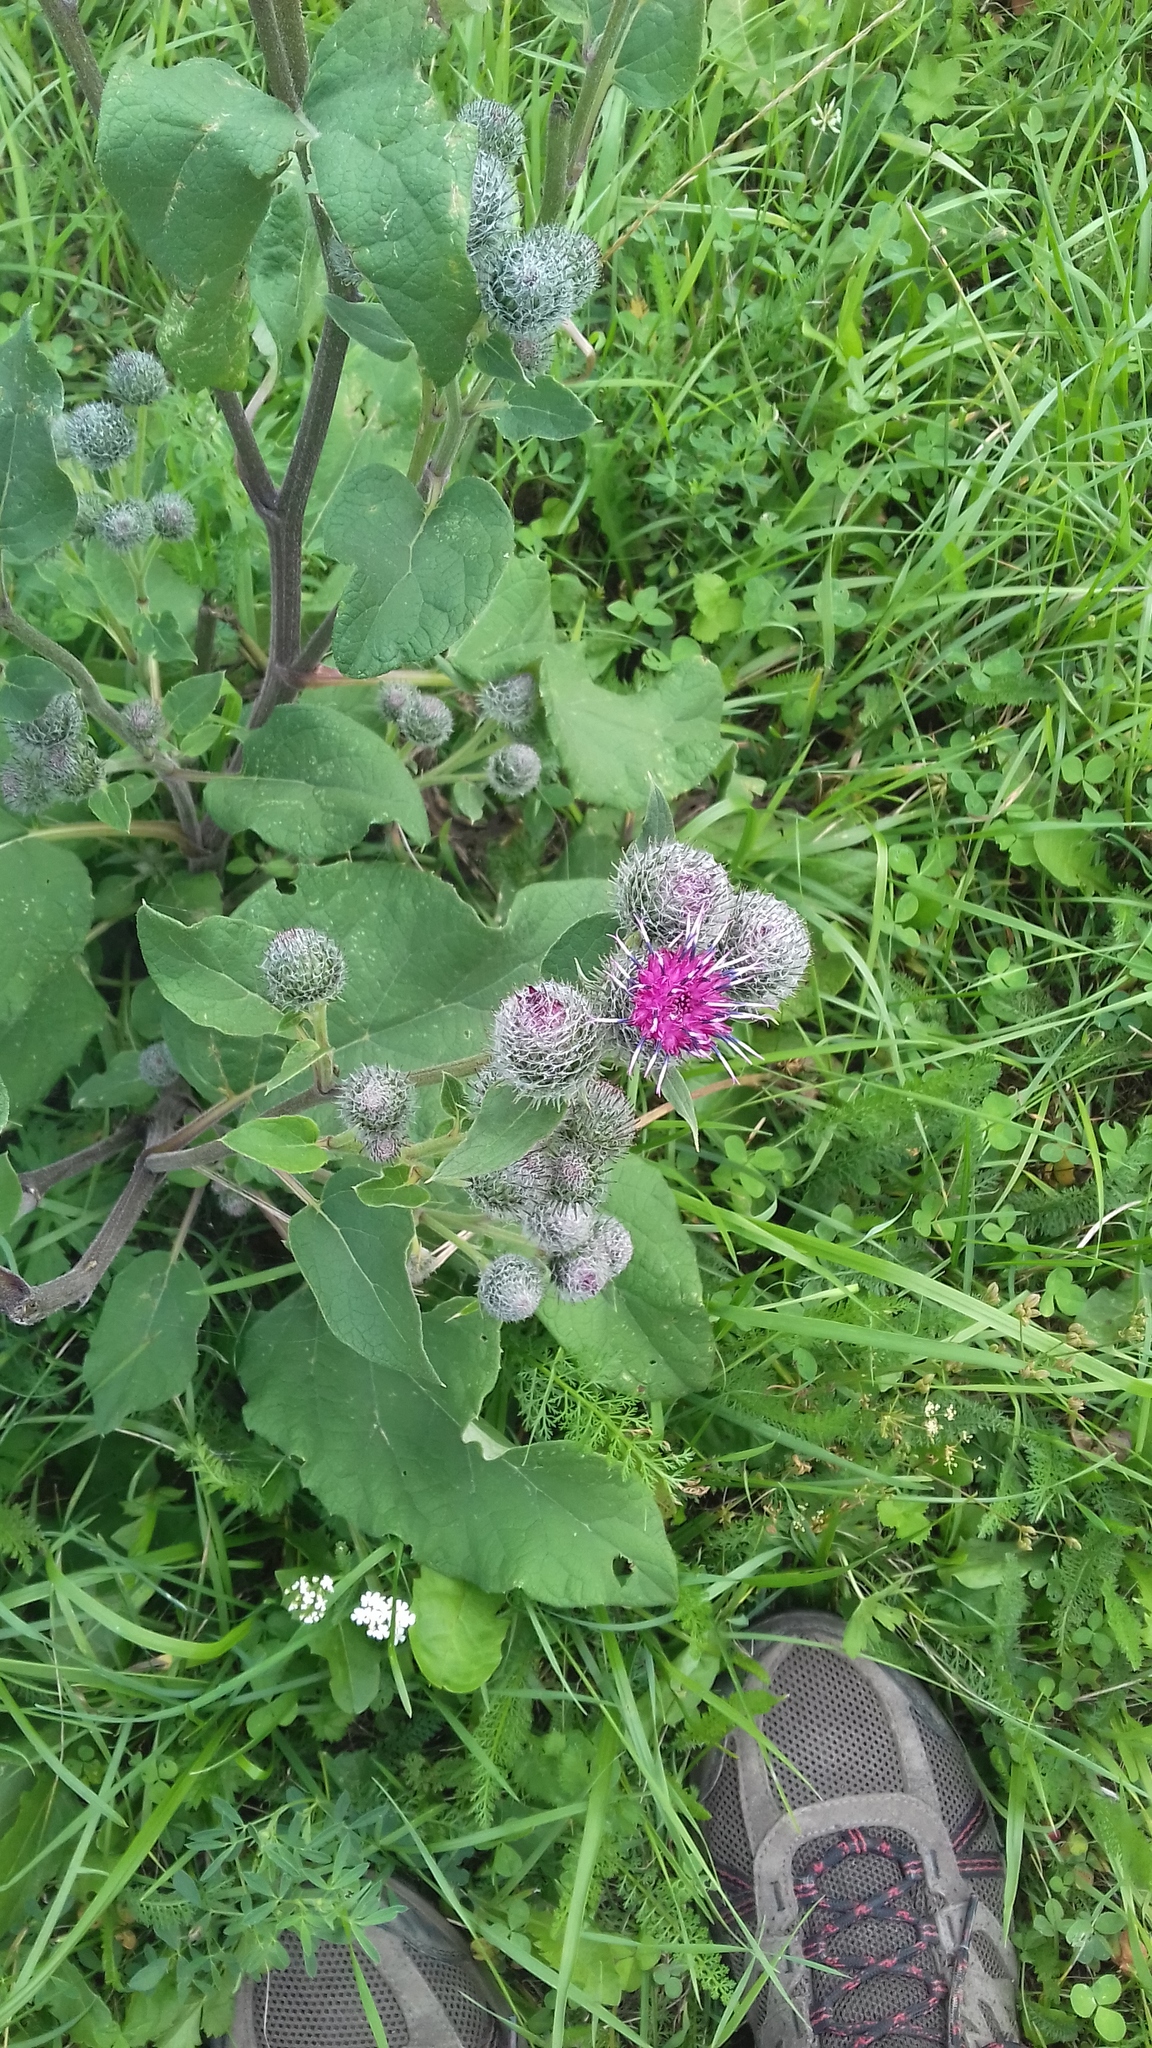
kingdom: Plantae
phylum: Tracheophyta
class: Magnoliopsida
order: Asterales
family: Asteraceae
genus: Arctium
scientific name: Arctium tomentosum
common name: Woolly burdock
